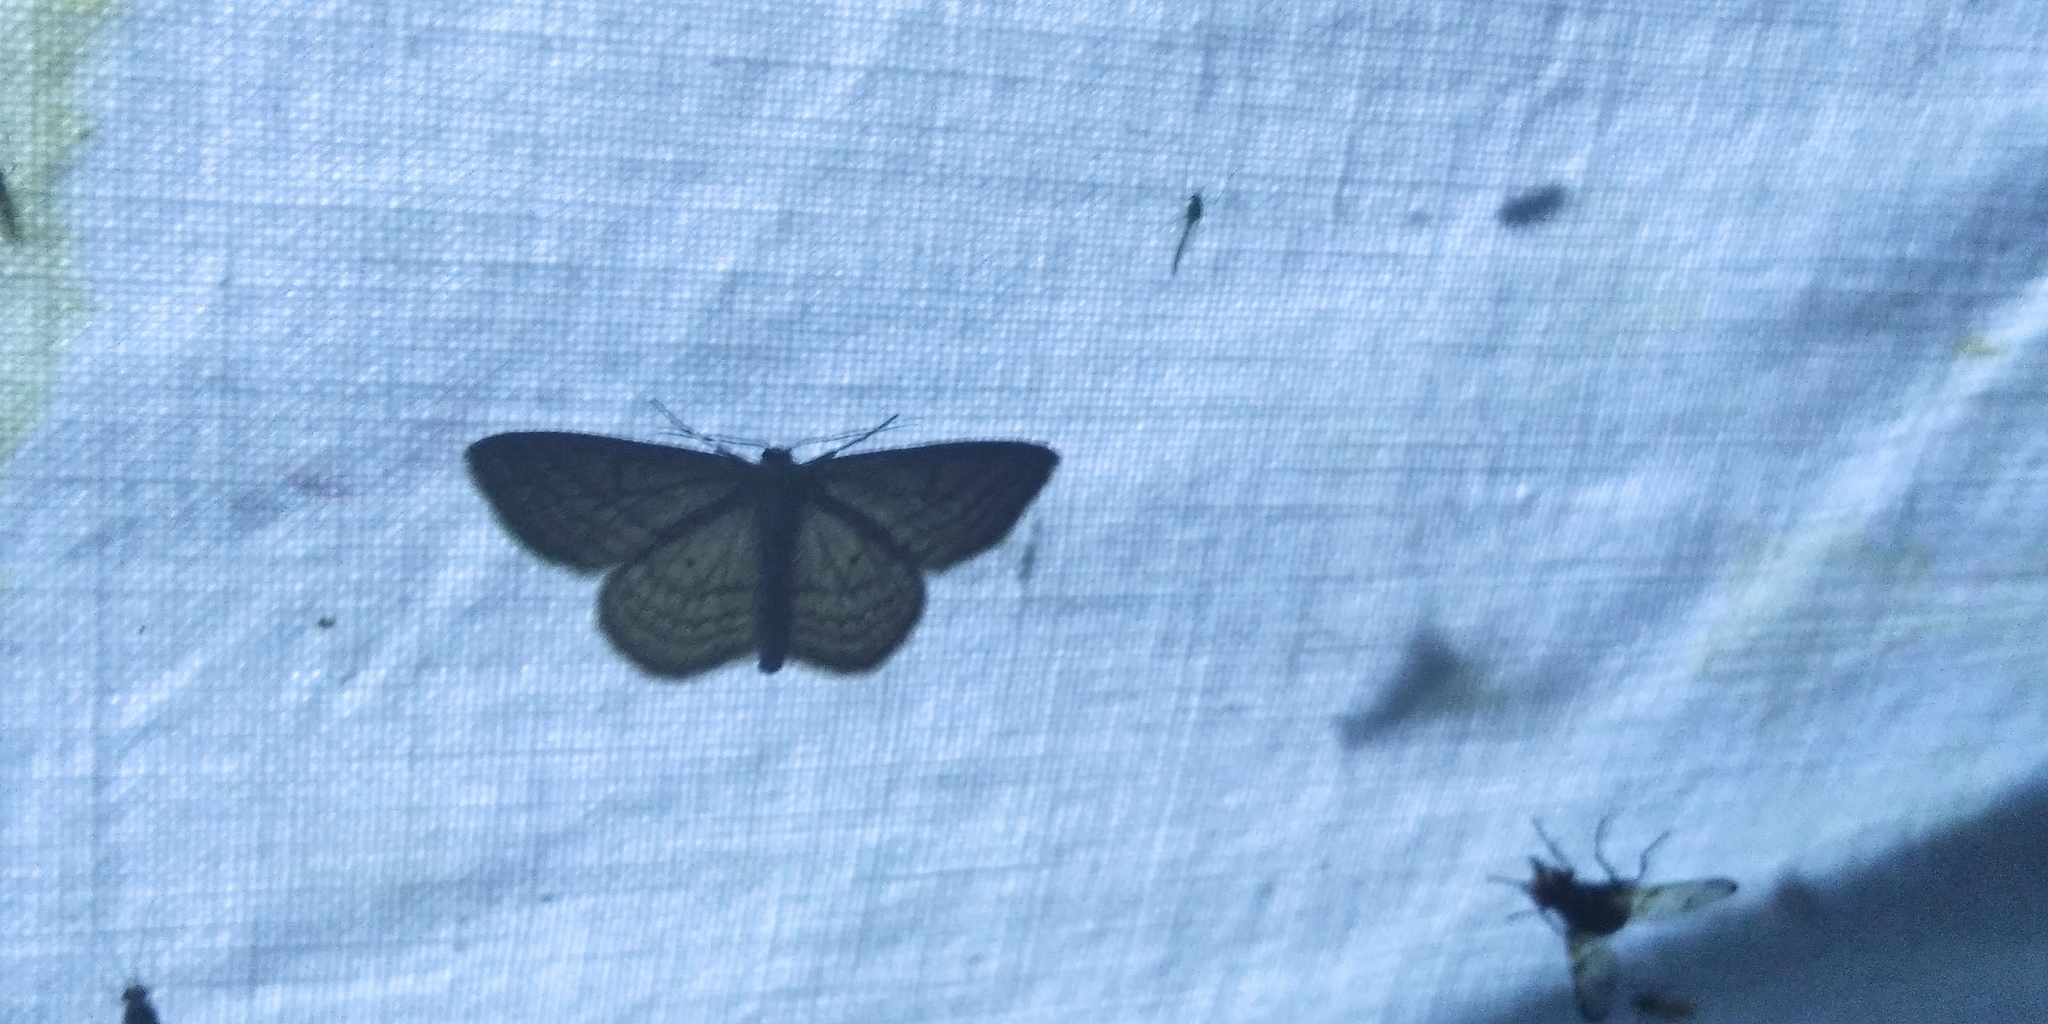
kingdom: Animalia
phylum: Arthropoda
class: Insecta
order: Lepidoptera
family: Geometridae
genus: Scopula
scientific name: Scopula virgulata
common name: Streaked wave
